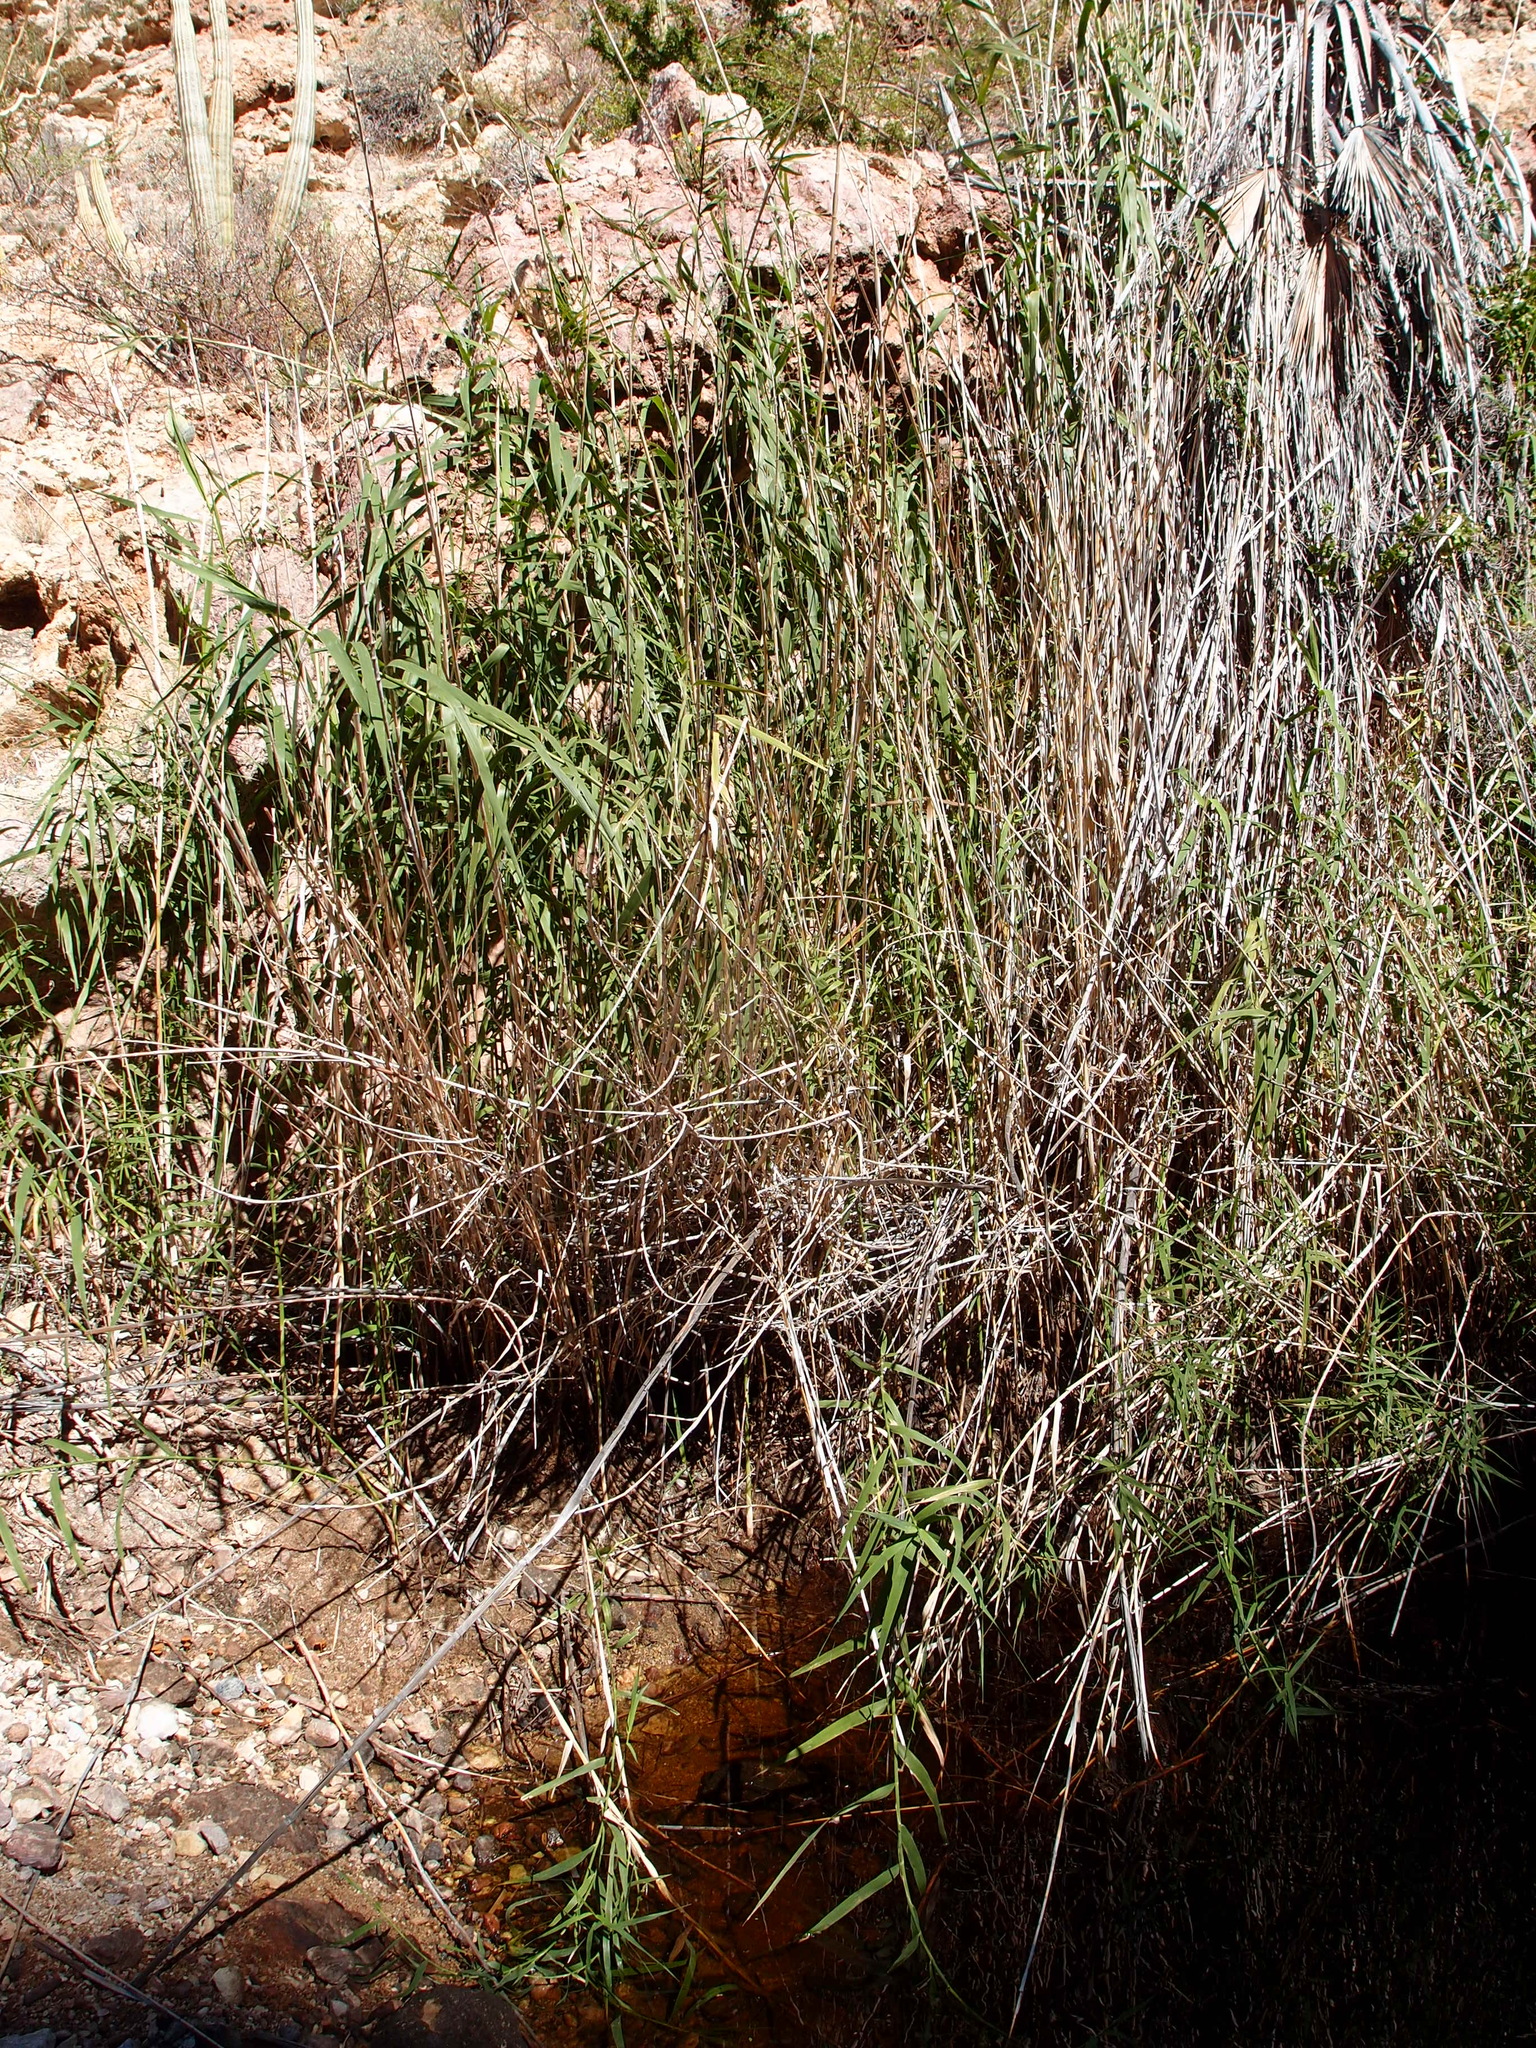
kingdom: Plantae
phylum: Tracheophyta
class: Liliopsida
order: Poales
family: Poaceae
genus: Phragmites
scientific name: Phragmites australis
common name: Common reed
